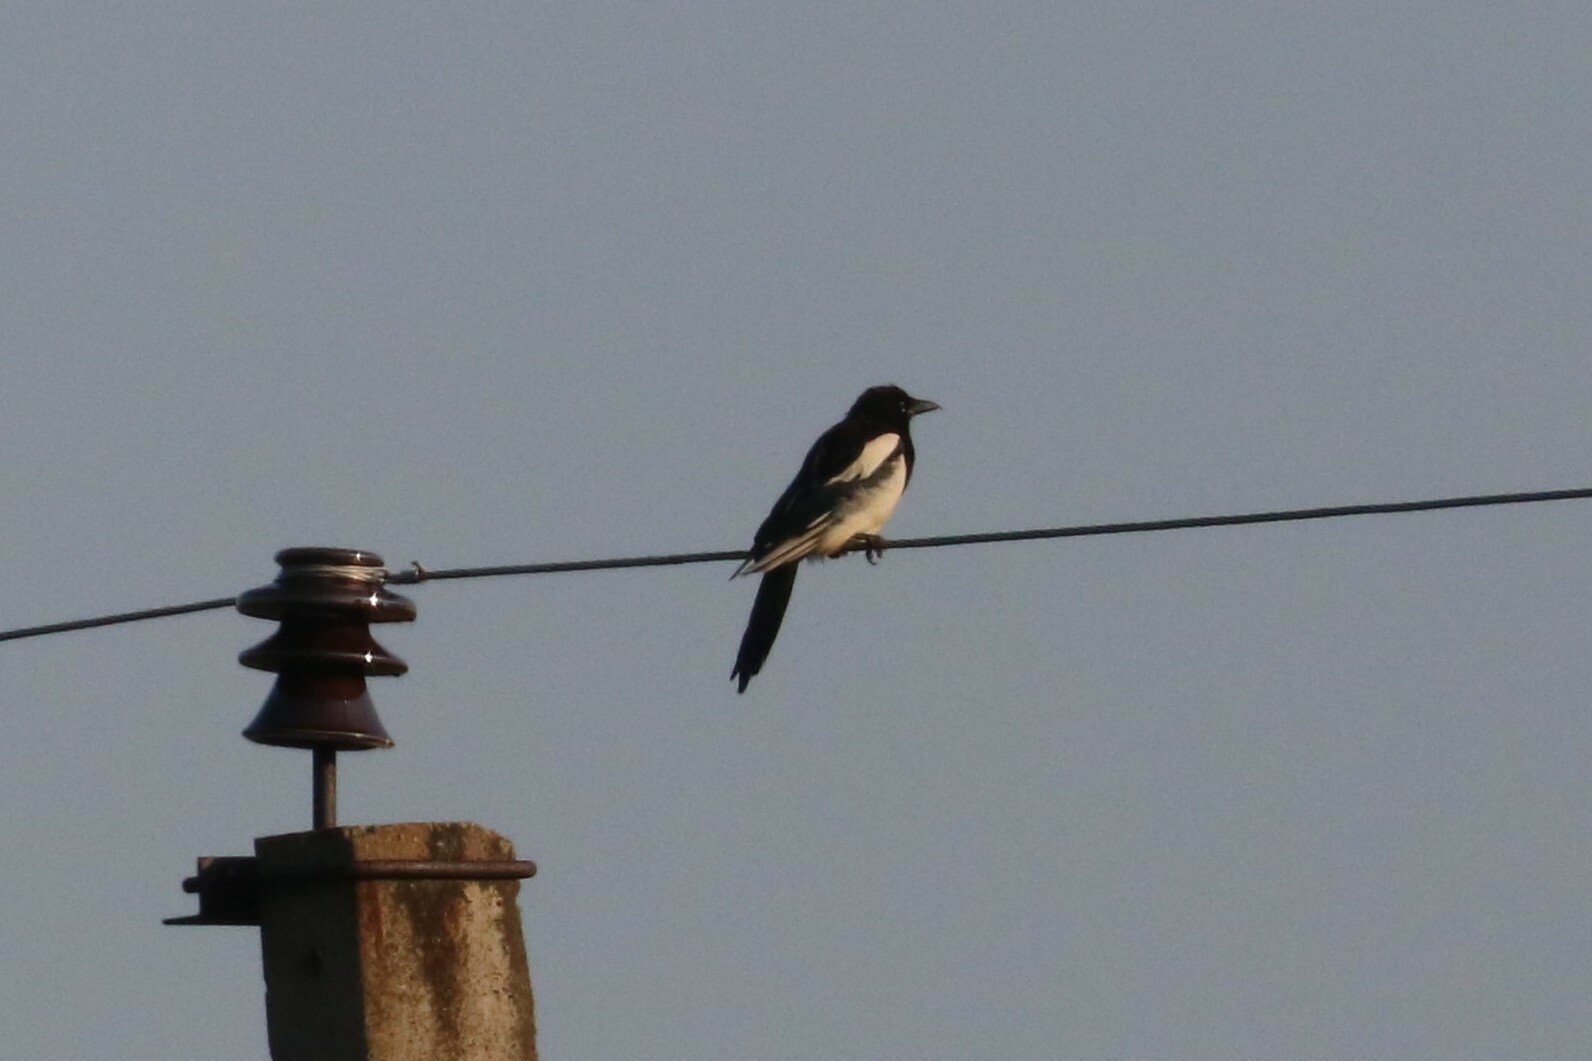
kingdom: Animalia
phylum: Chordata
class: Aves
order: Passeriformes
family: Corvidae
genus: Pica
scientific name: Pica pica
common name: Eurasian magpie
